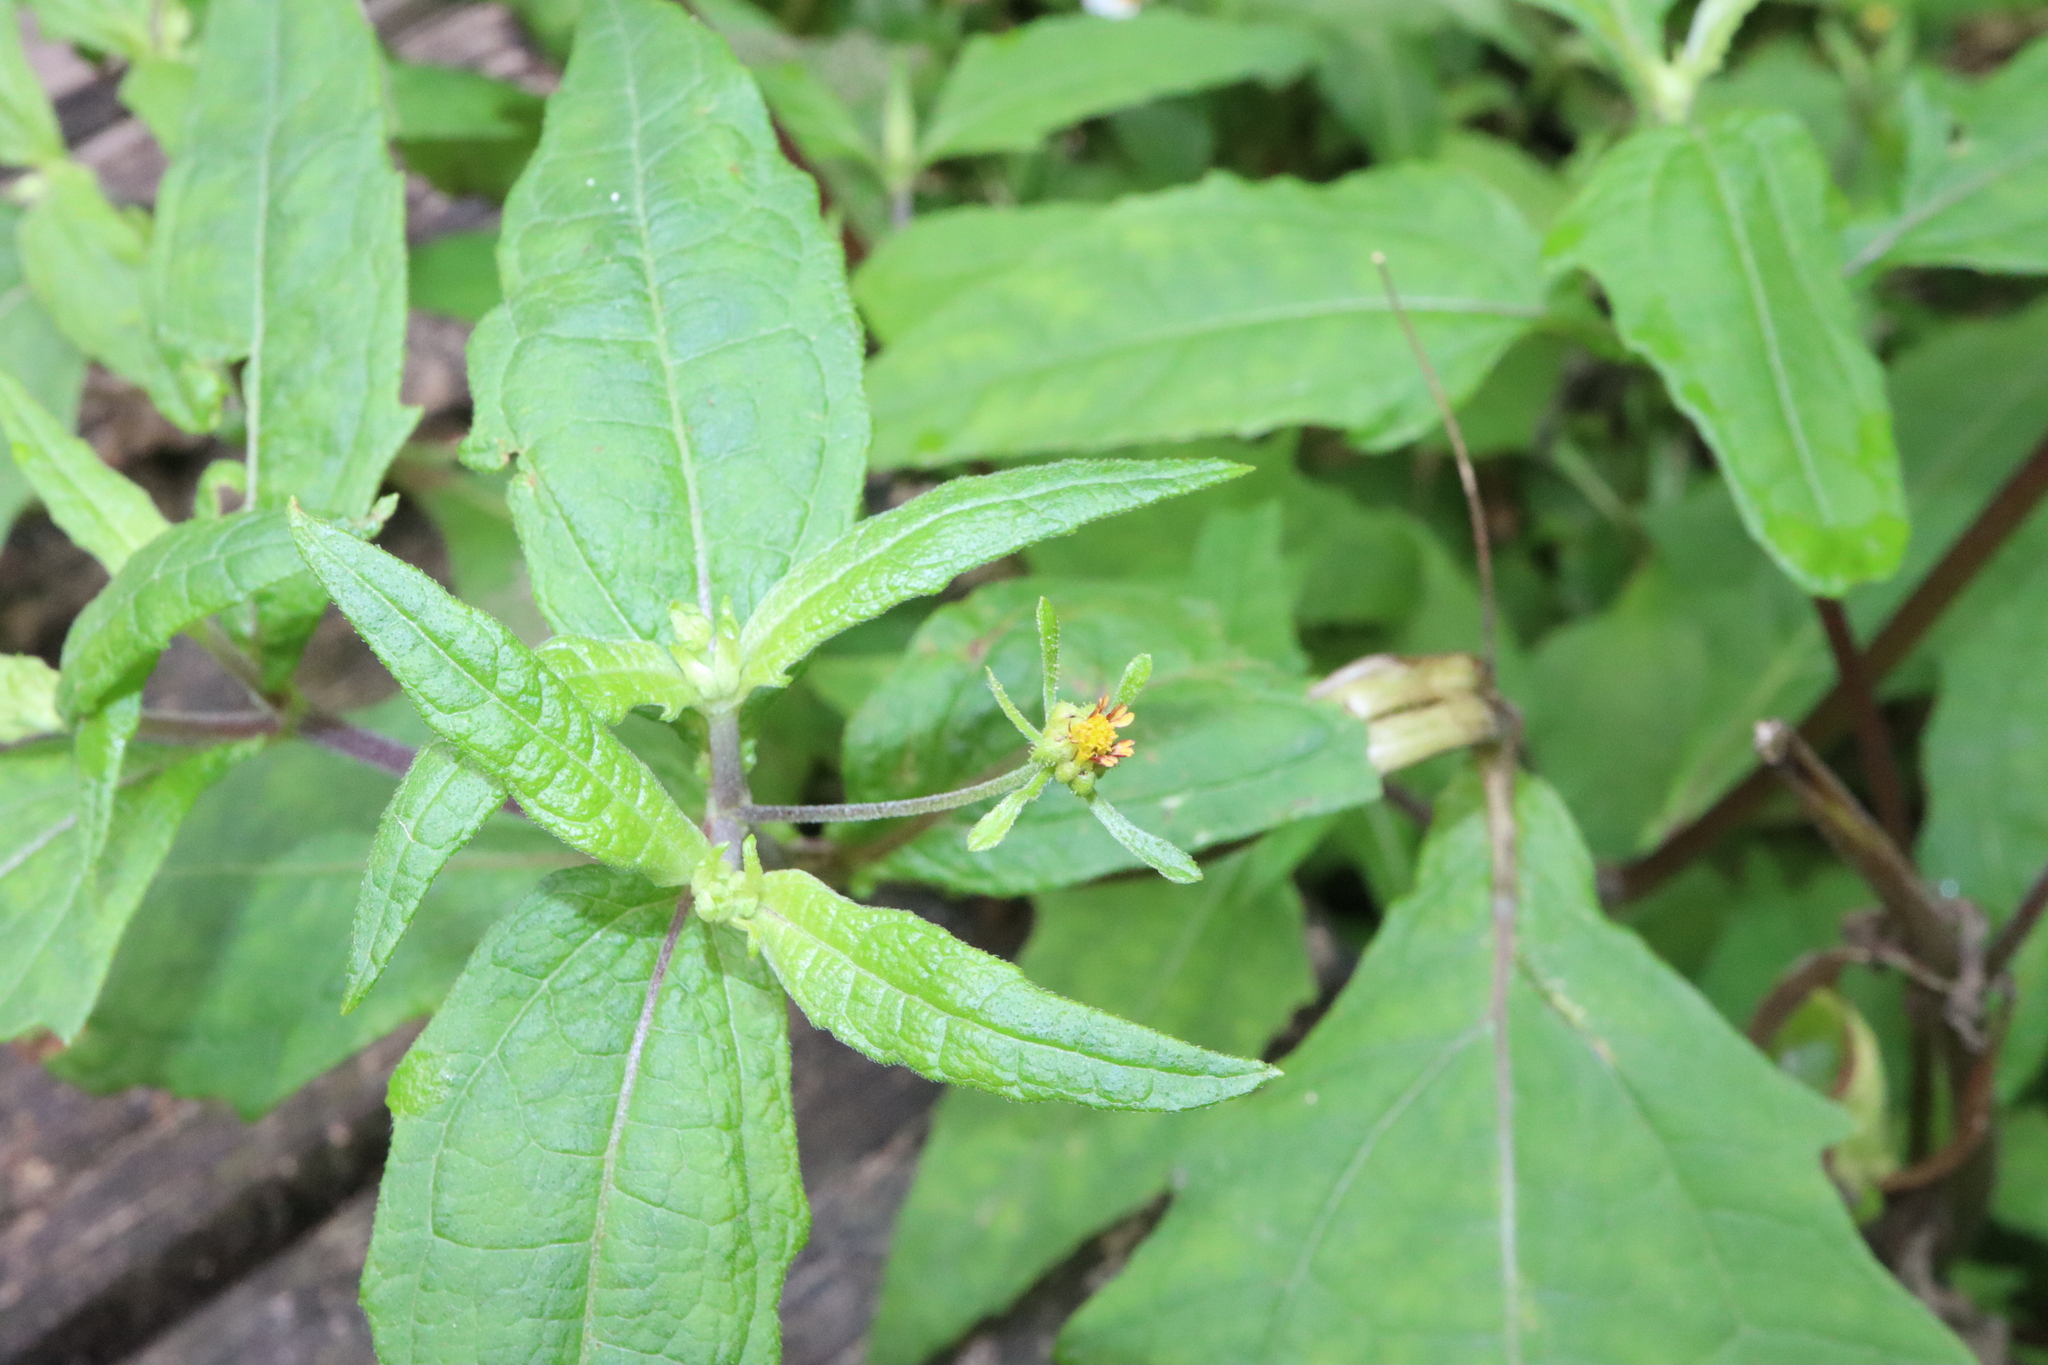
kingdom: Plantae
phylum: Tracheophyta
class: Magnoliopsida
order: Asterales
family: Asteraceae
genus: Sigesbeckia
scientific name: Sigesbeckia orientalis
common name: Eastern st paul's-wort
